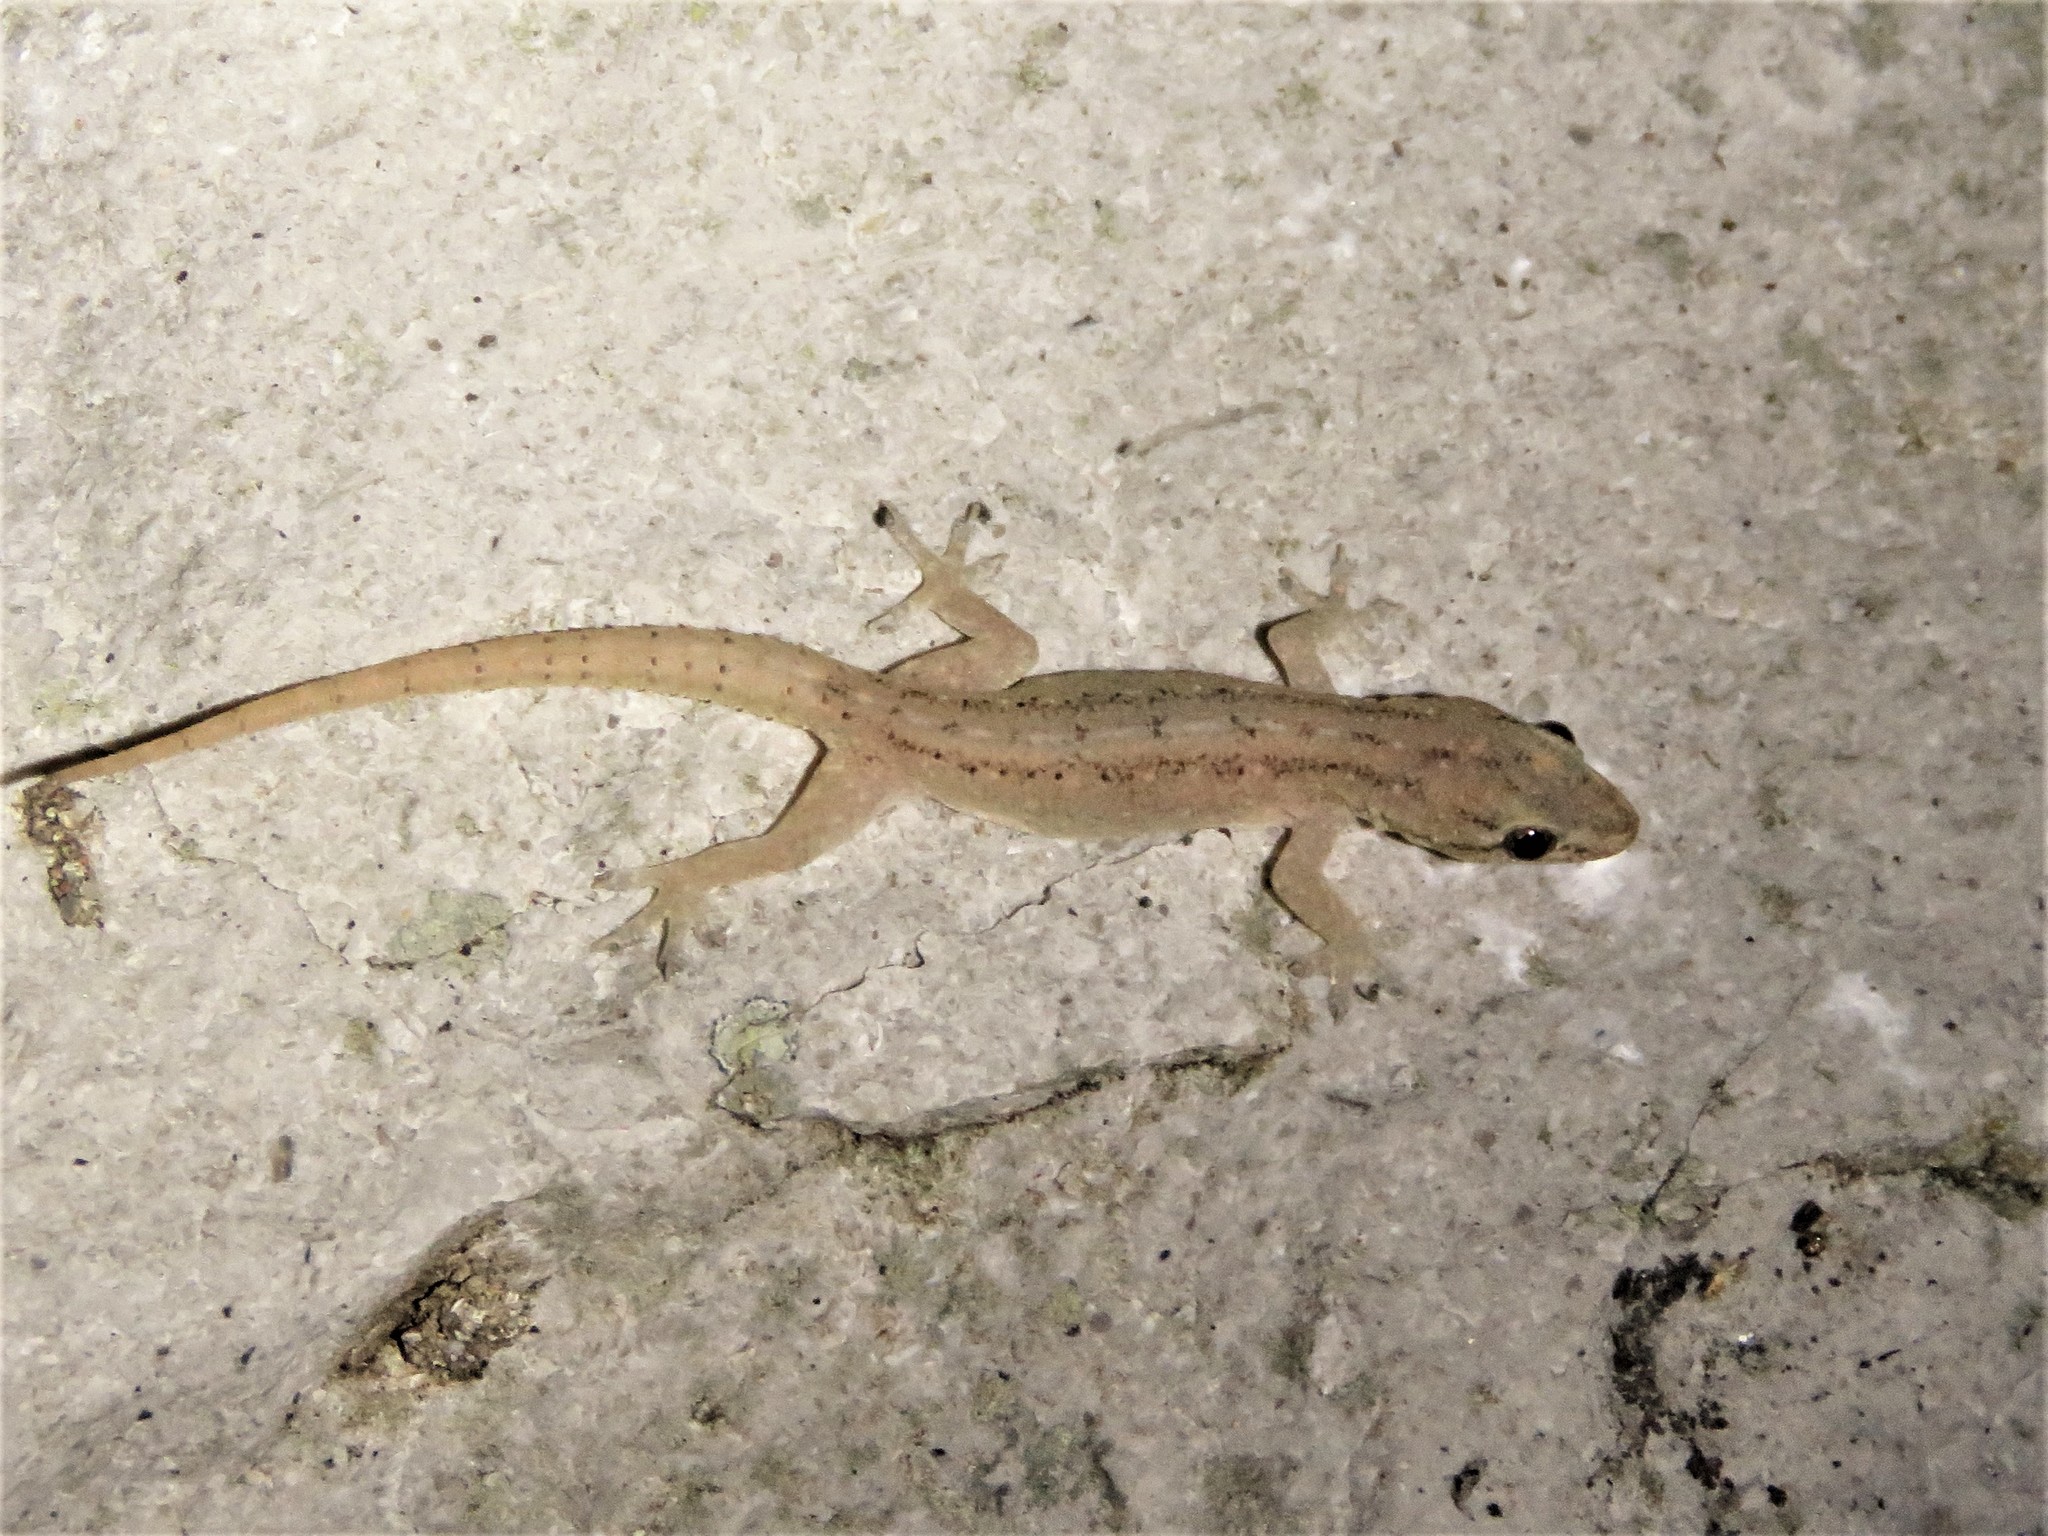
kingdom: Animalia
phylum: Chordata
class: Squamata
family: Gekkonidae
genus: Hemidactylus
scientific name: Hemidactylus frenatus
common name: Common house gecko
